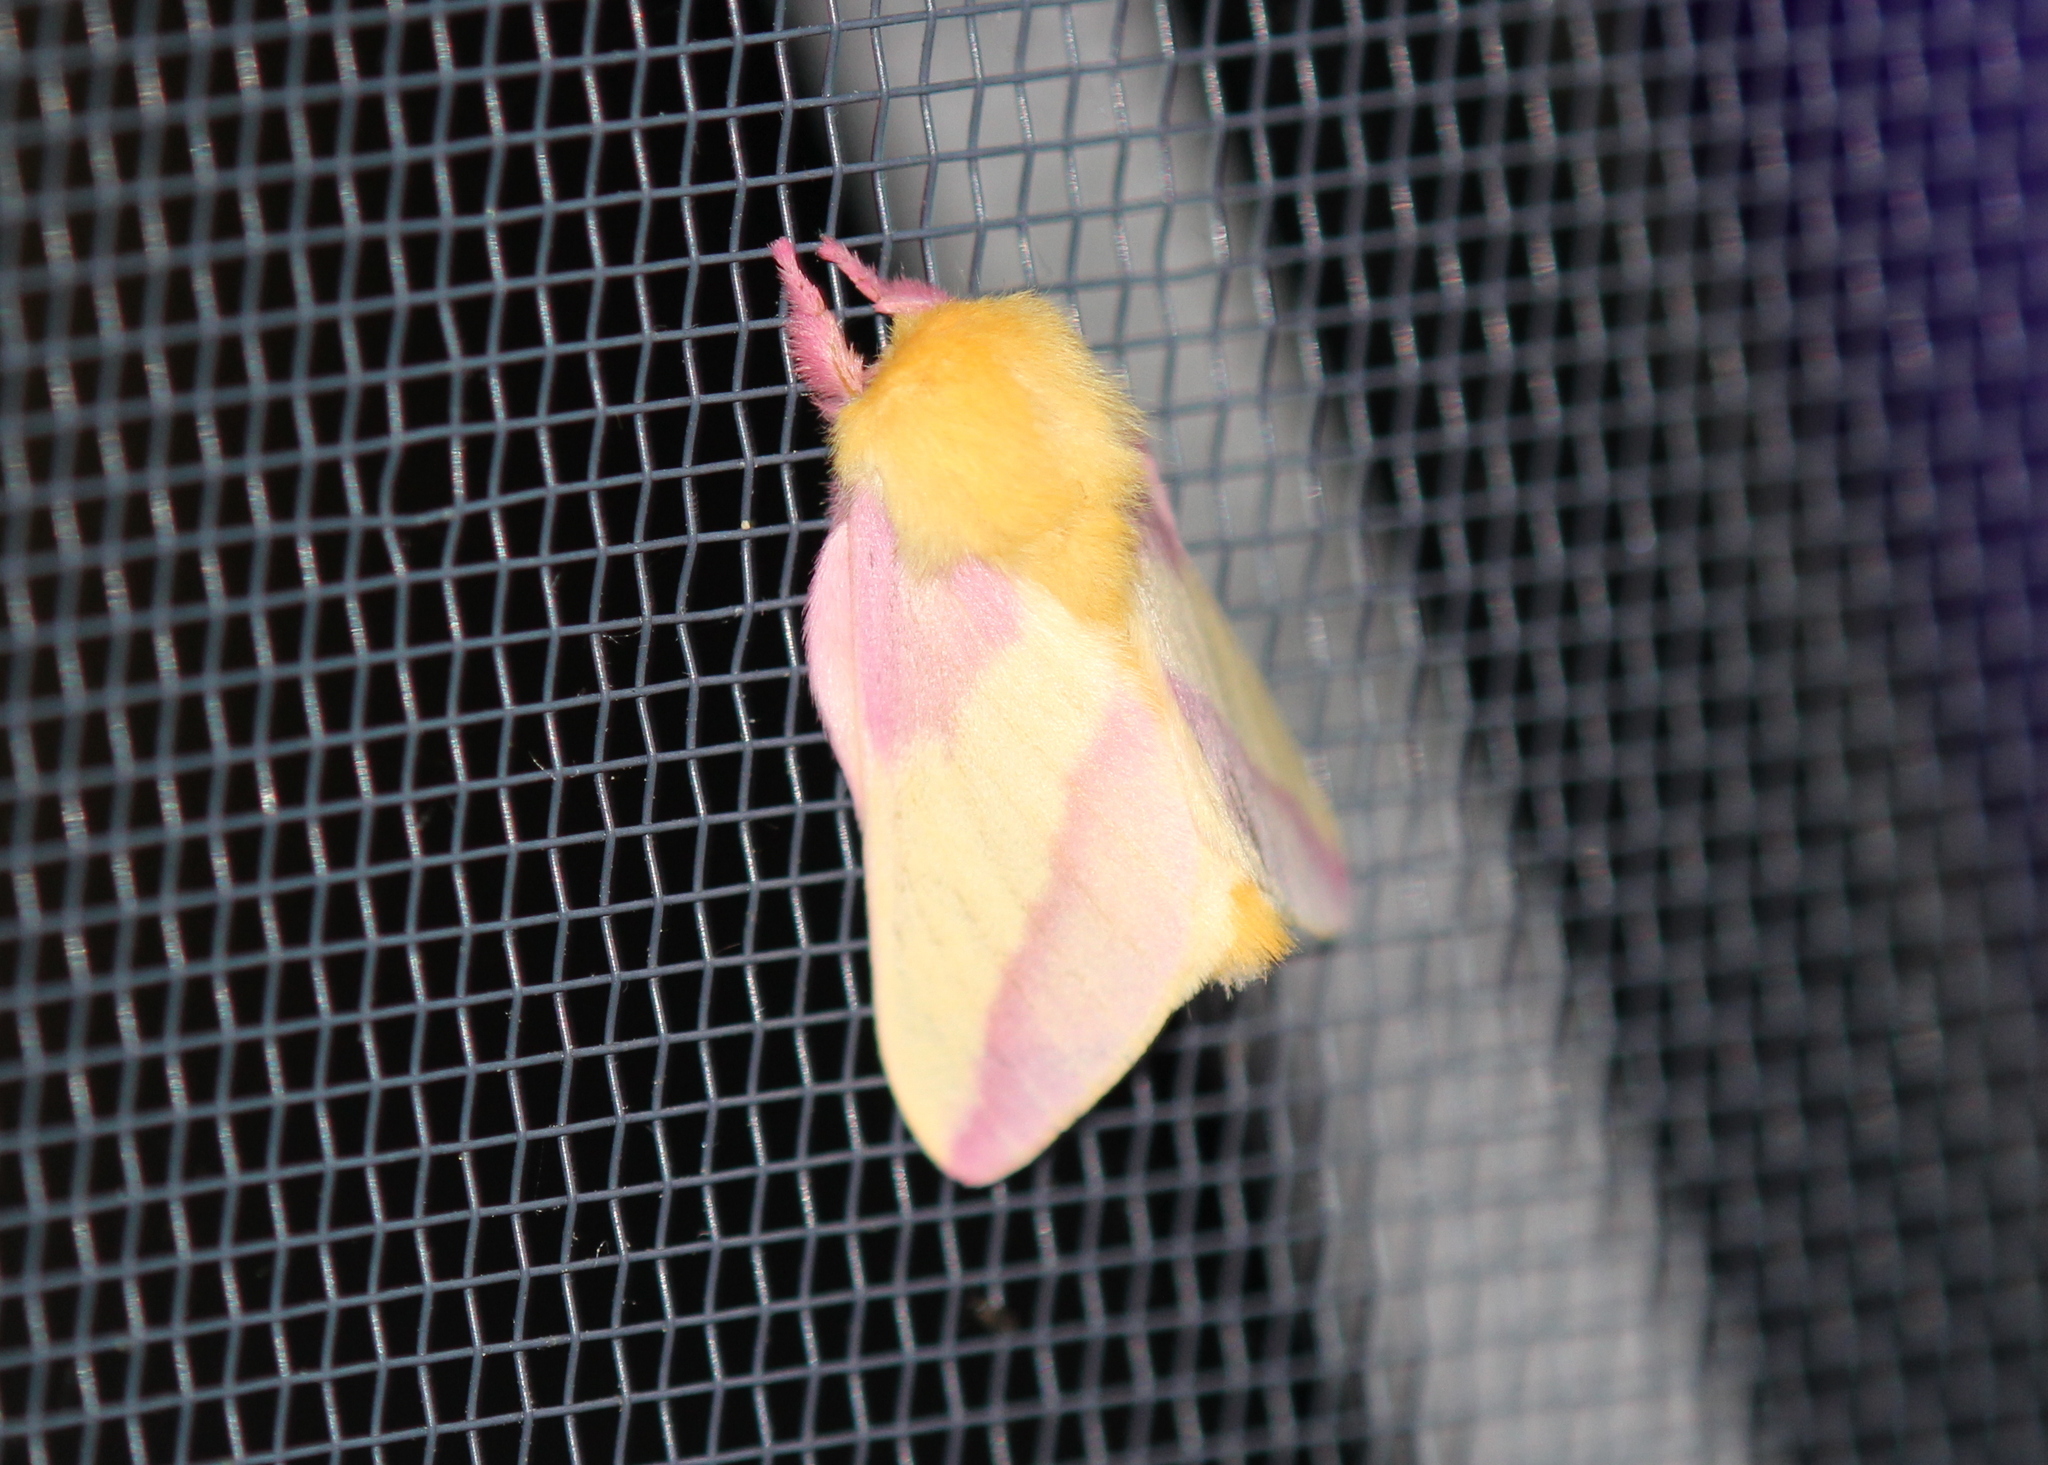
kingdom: Animalia
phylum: Arthropoda
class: Insecta
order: Lepidoptera
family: Saturniidae
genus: Dryocampa
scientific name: Dryocampa rubicunda
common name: Rosy maple moth
